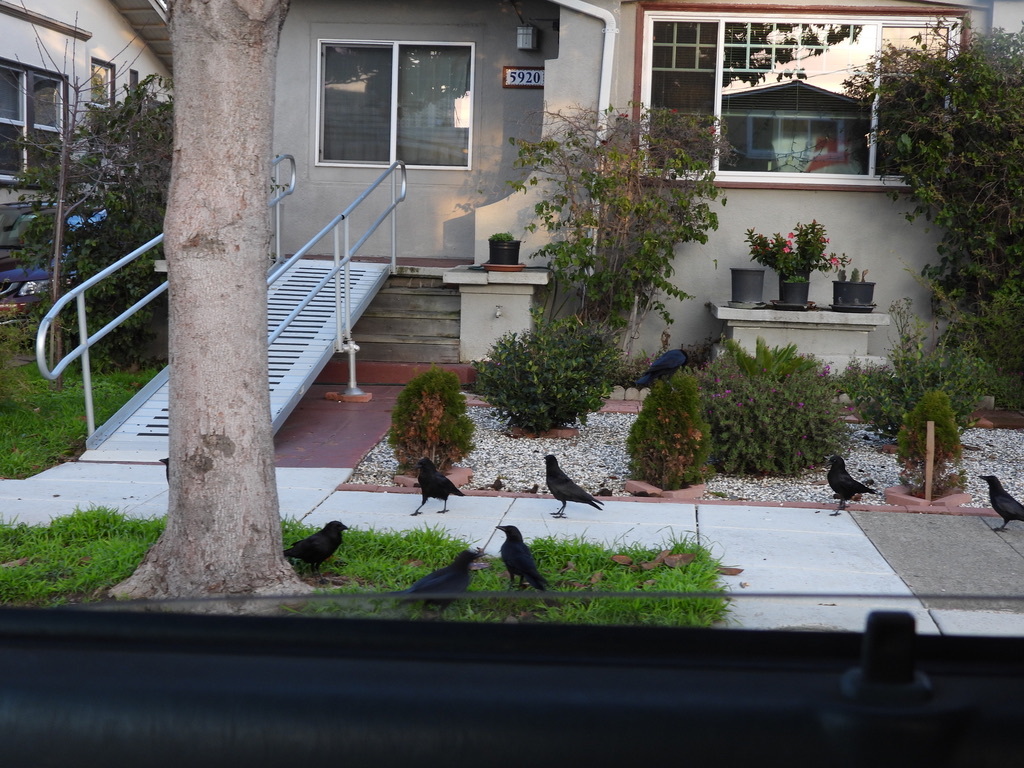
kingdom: Animalia
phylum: Chordata
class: Aves
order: Passeriformes
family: Corvidae
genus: Corvus
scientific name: Corvus brachyrhynchos
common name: American crow
